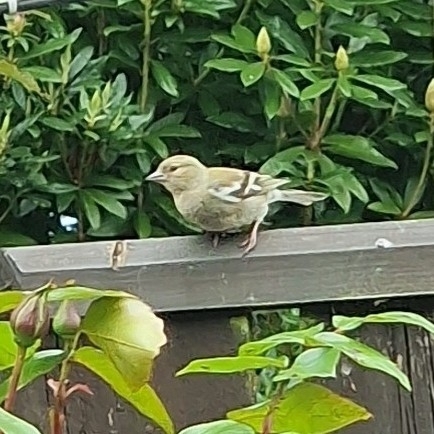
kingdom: Animalia
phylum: Chordata
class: Aves
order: Passeriformes
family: Fringillidae
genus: Fringilla
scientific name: Fringilla coelebs
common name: Common chaffinch
